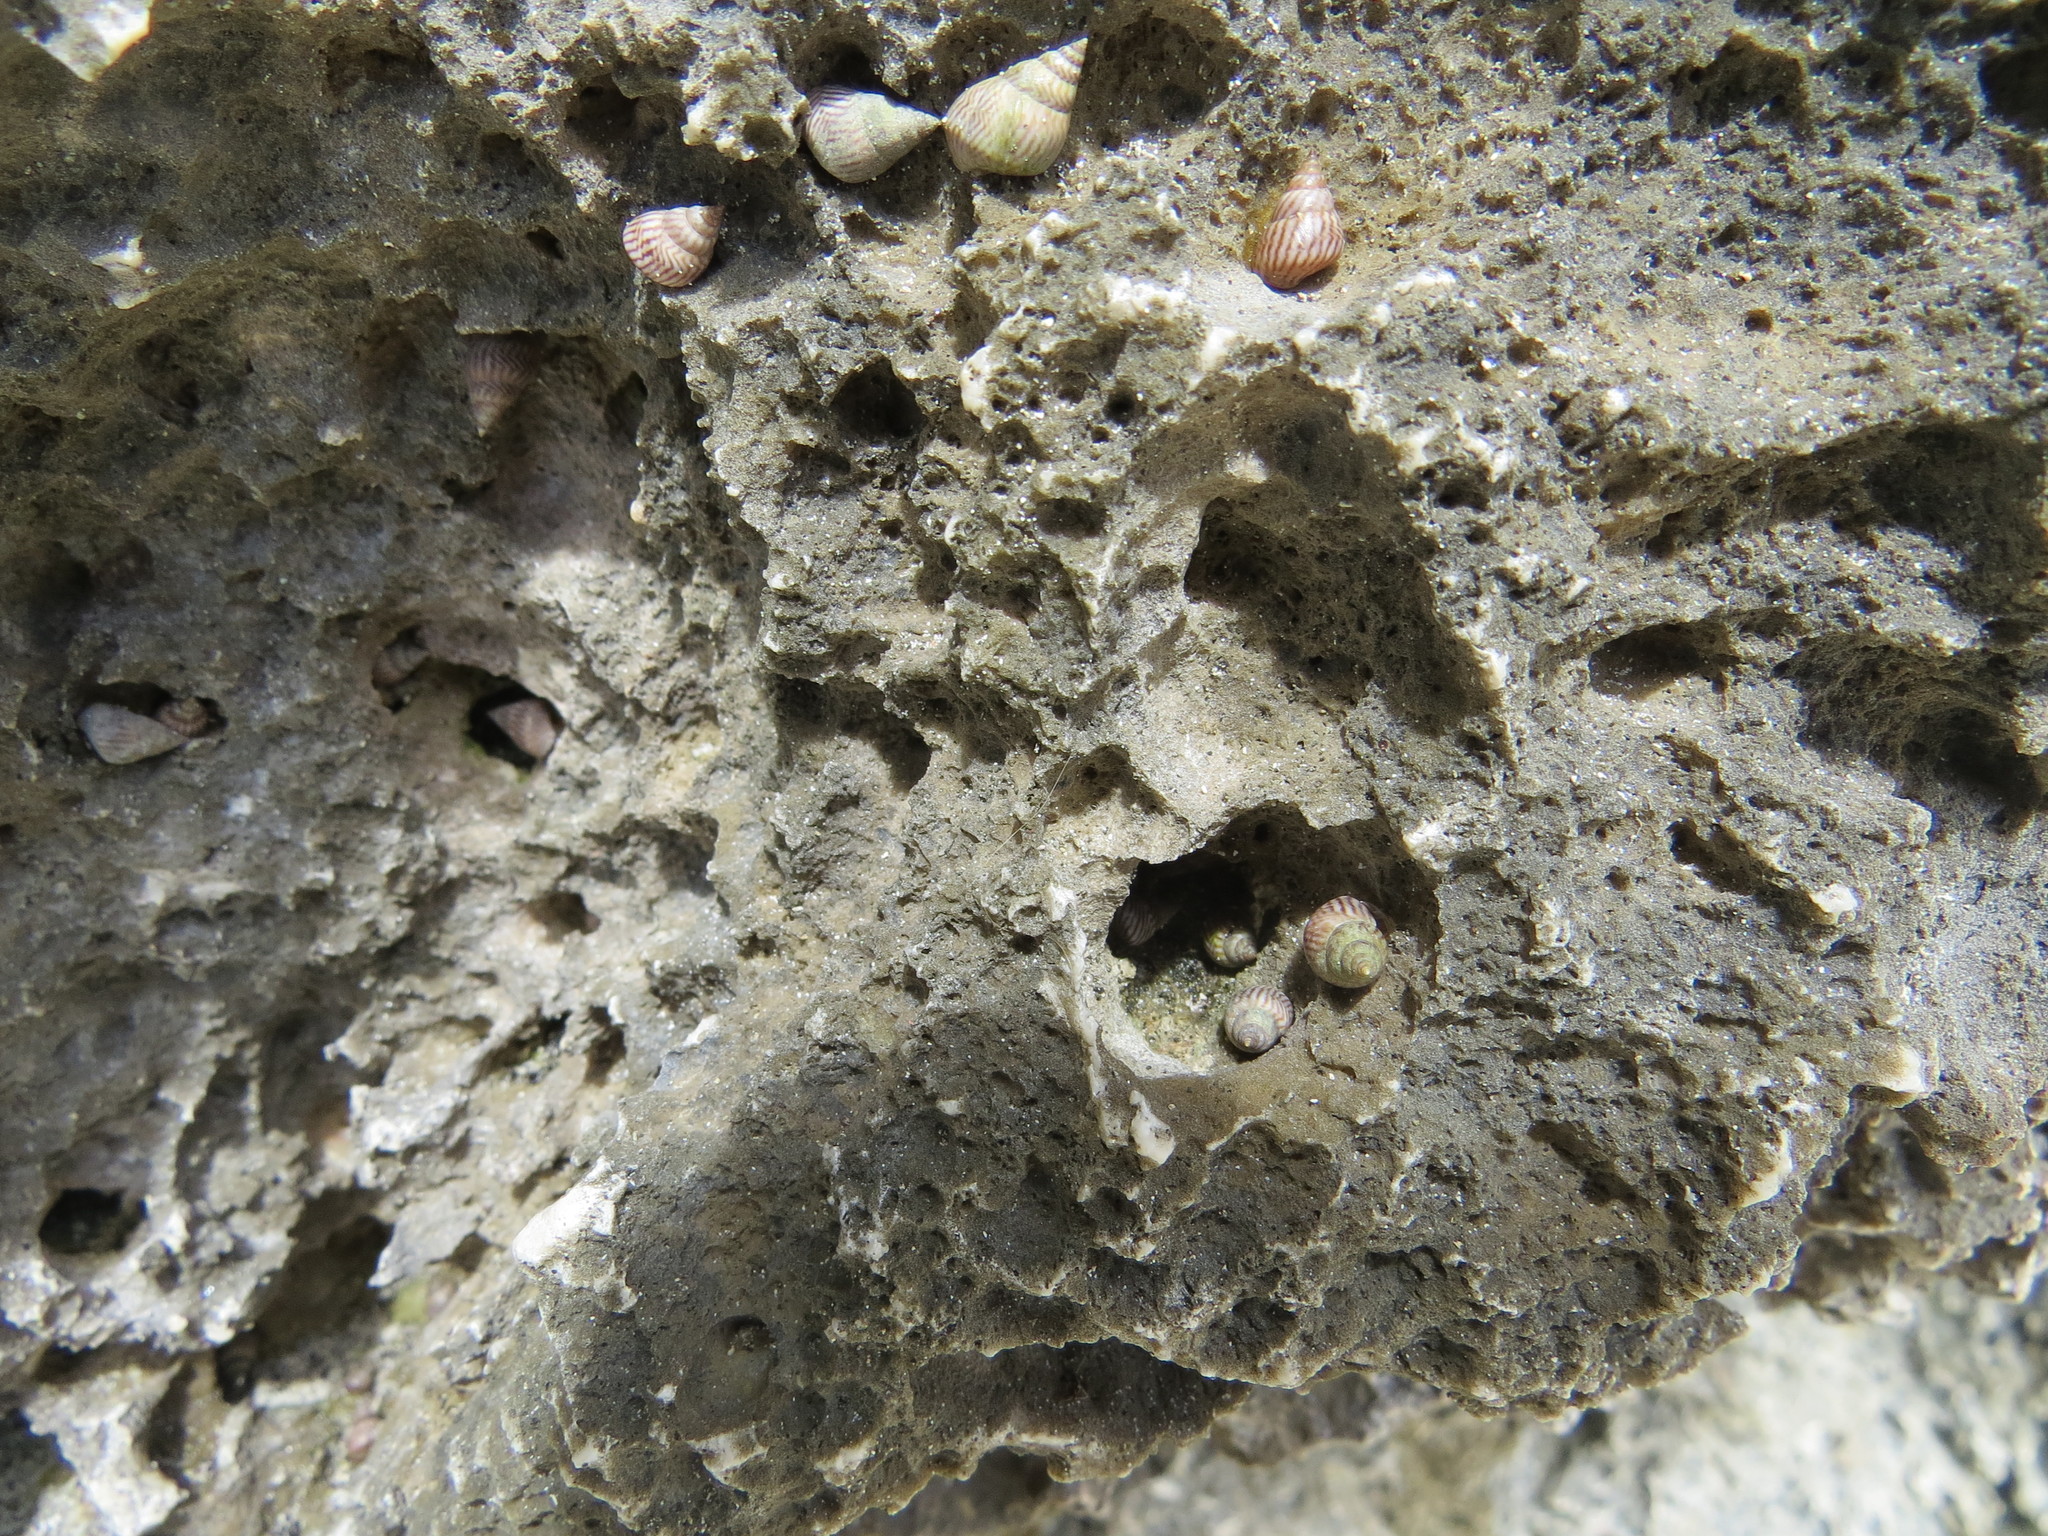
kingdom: Animalia
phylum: Mollusca
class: Gastropoda
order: Littorinimorpha
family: Littorinidae
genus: Littoraria
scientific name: Littoraria coccinea
